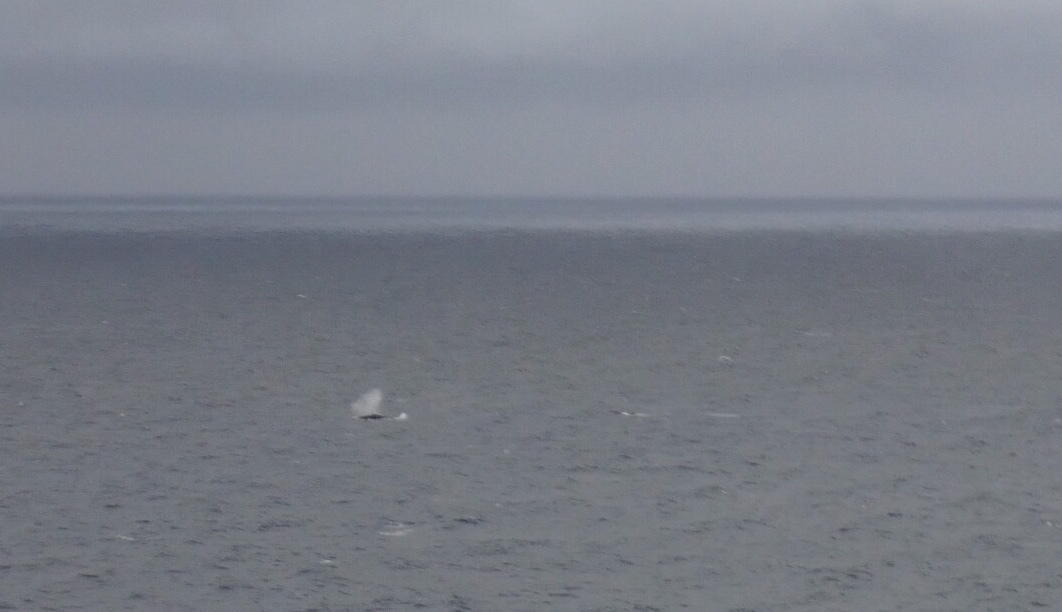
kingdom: Animalia
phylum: Chordata
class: Mammalia
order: Cetacea
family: Balaenopteridae
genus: Megaptera
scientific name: Megaptera novaeangliae
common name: Humpback whale
